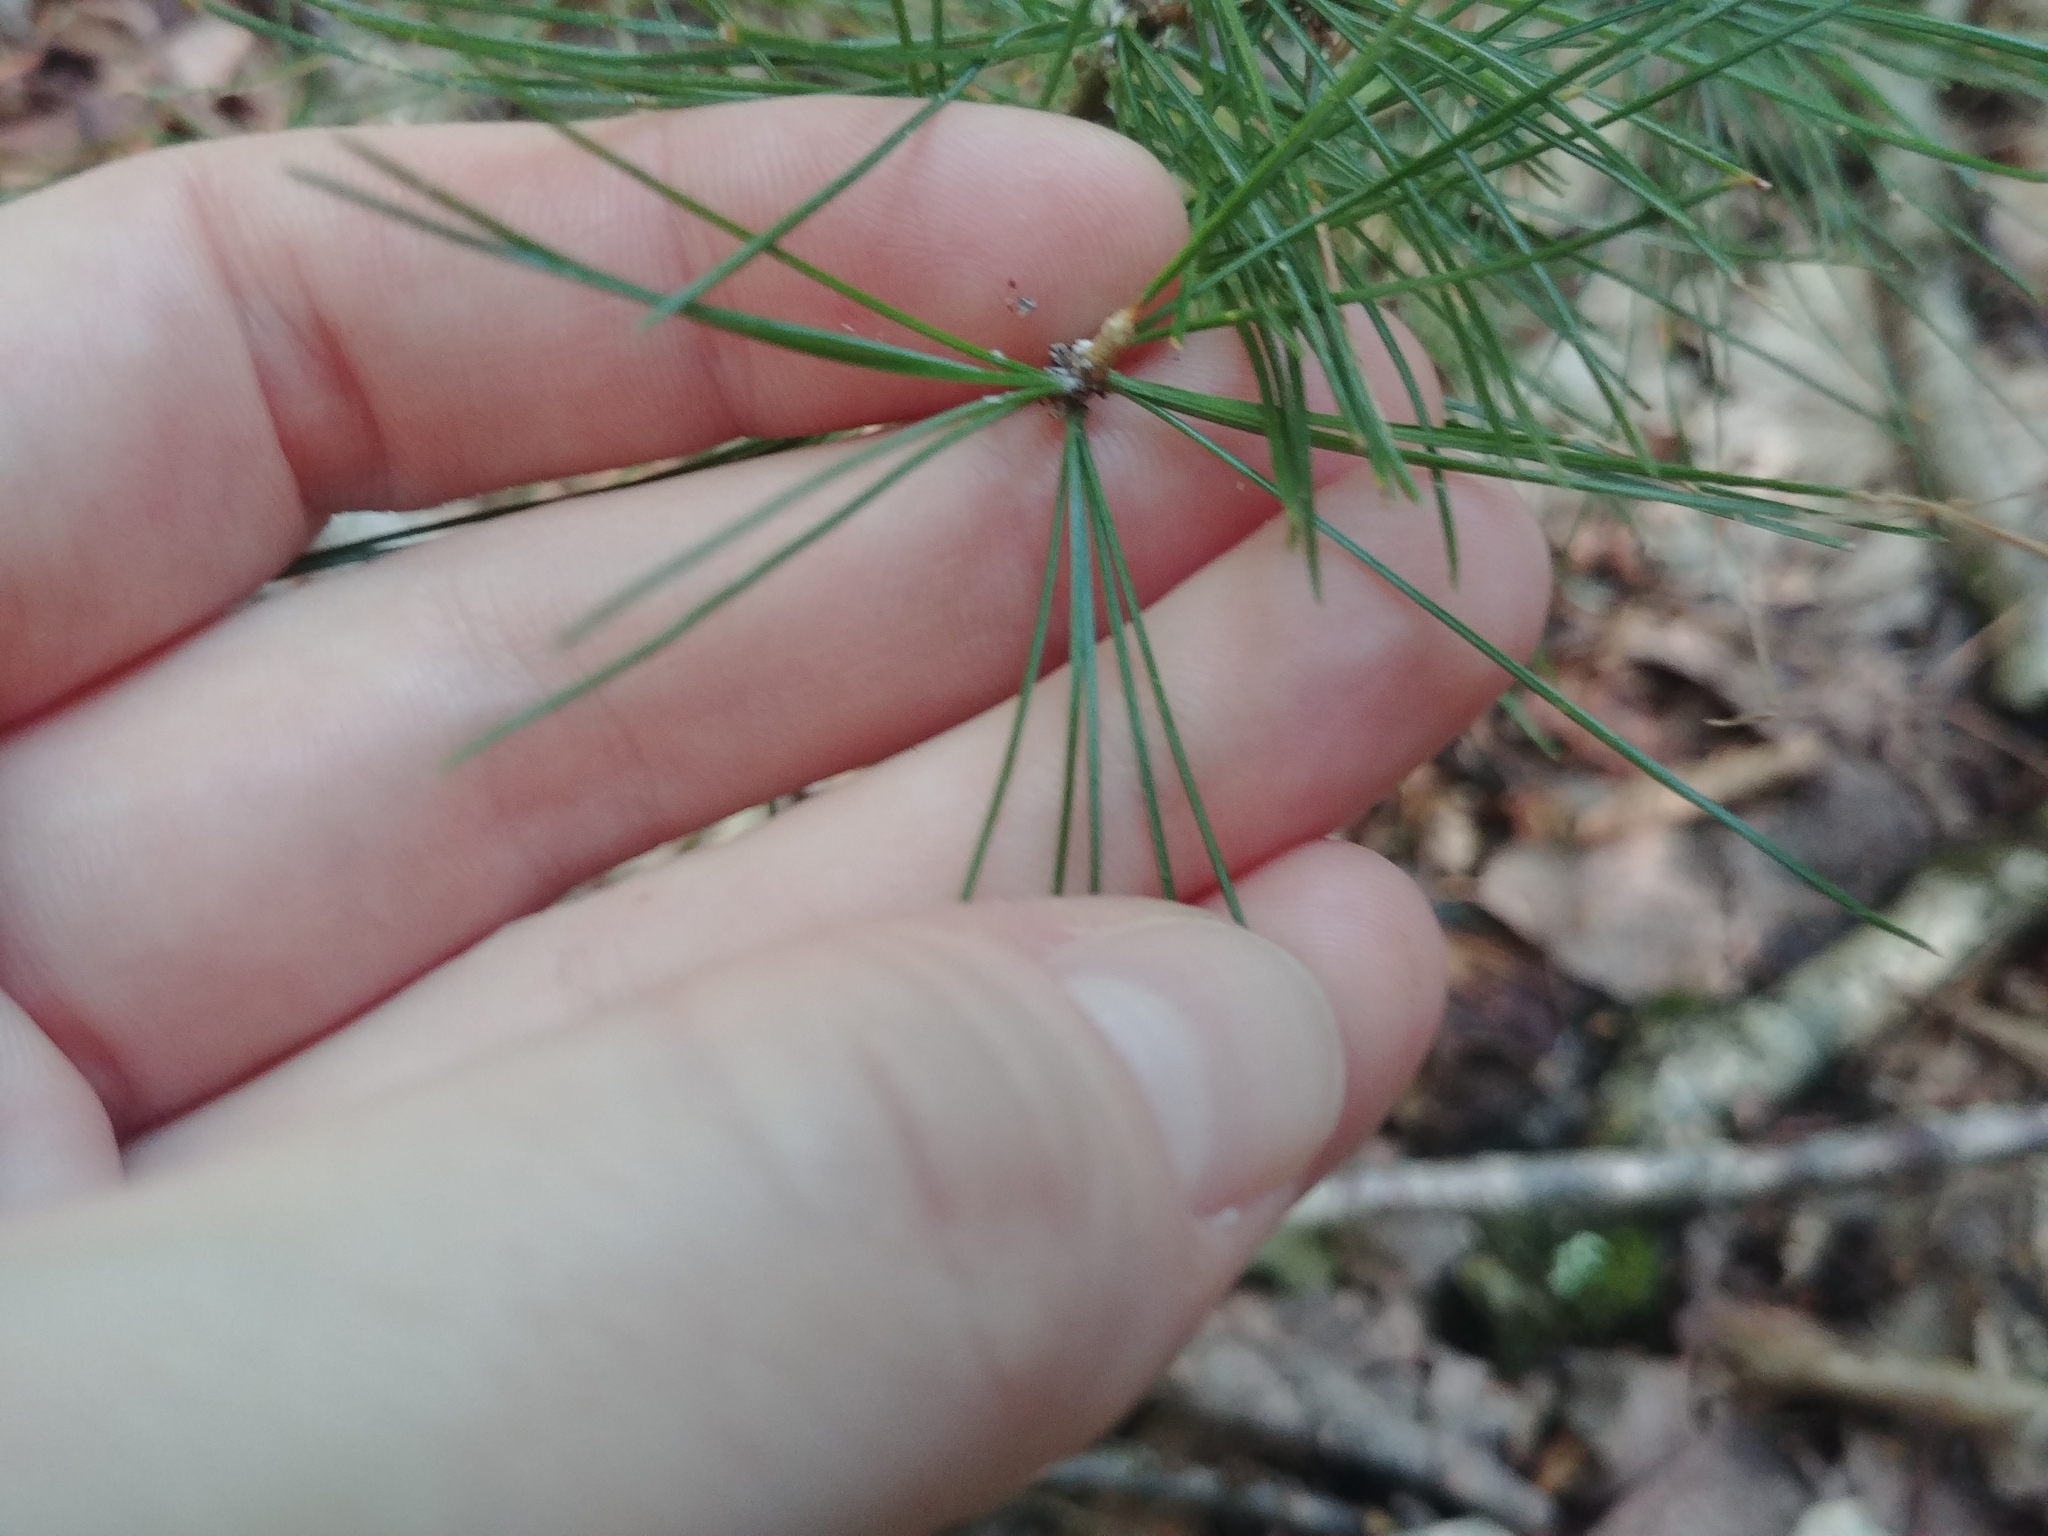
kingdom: Plantae
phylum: Tracheophyta
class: Pinopsida
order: Pinales
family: Pinaceae
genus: Pinus
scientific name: Pinus strobus
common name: Weymouth pine
